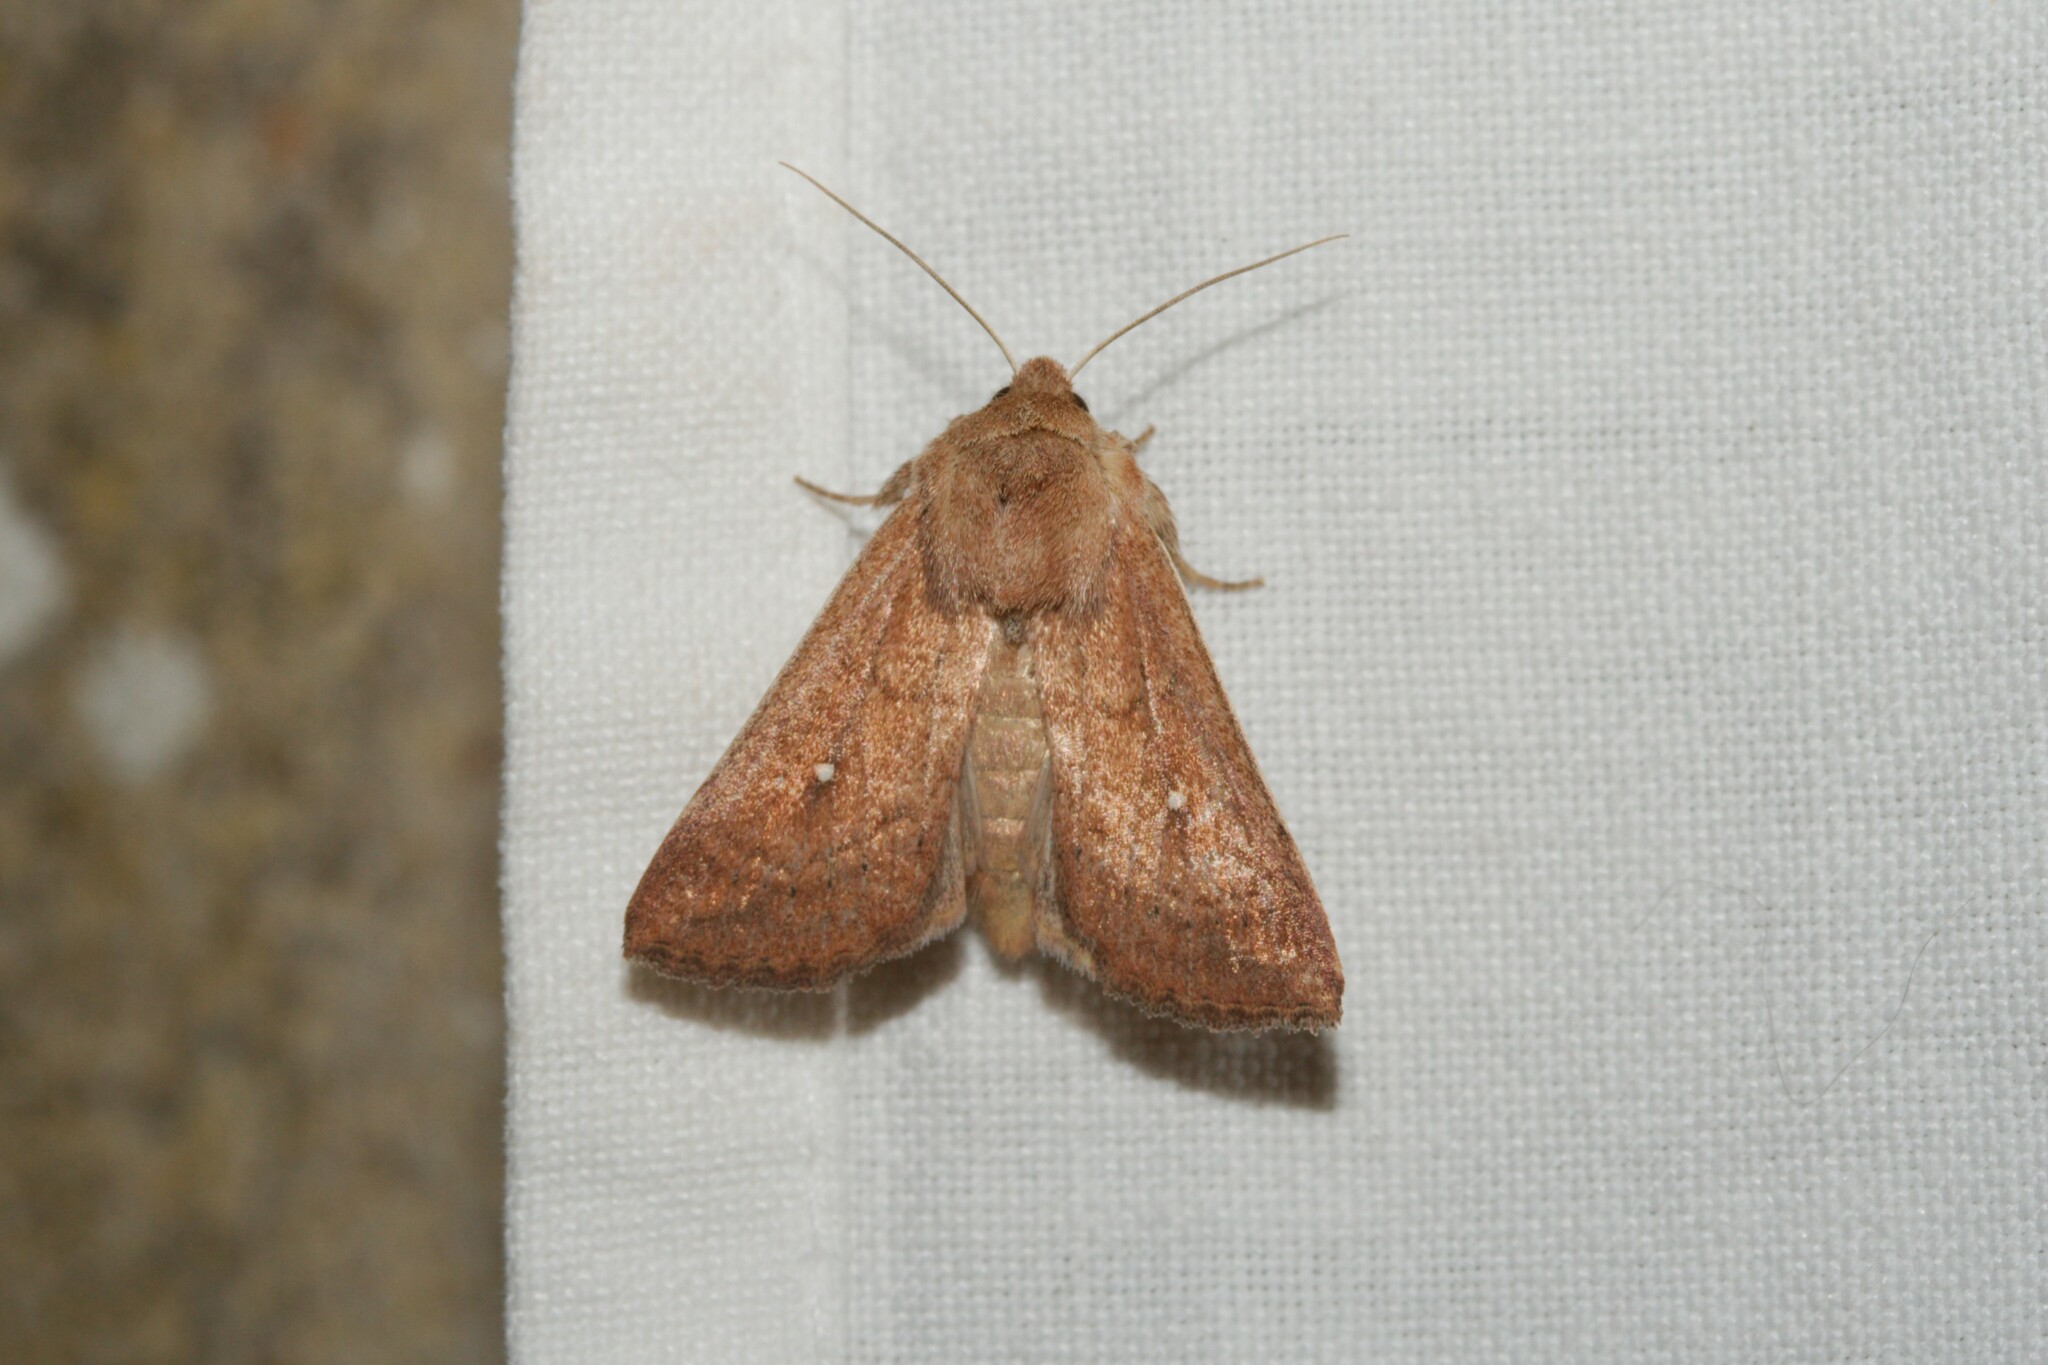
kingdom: Animalia
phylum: Arthropoda
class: Insecta
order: Lepidoptera
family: Noctuidae
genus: Mythimna
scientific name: Mythimna albipuncta
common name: White-point
